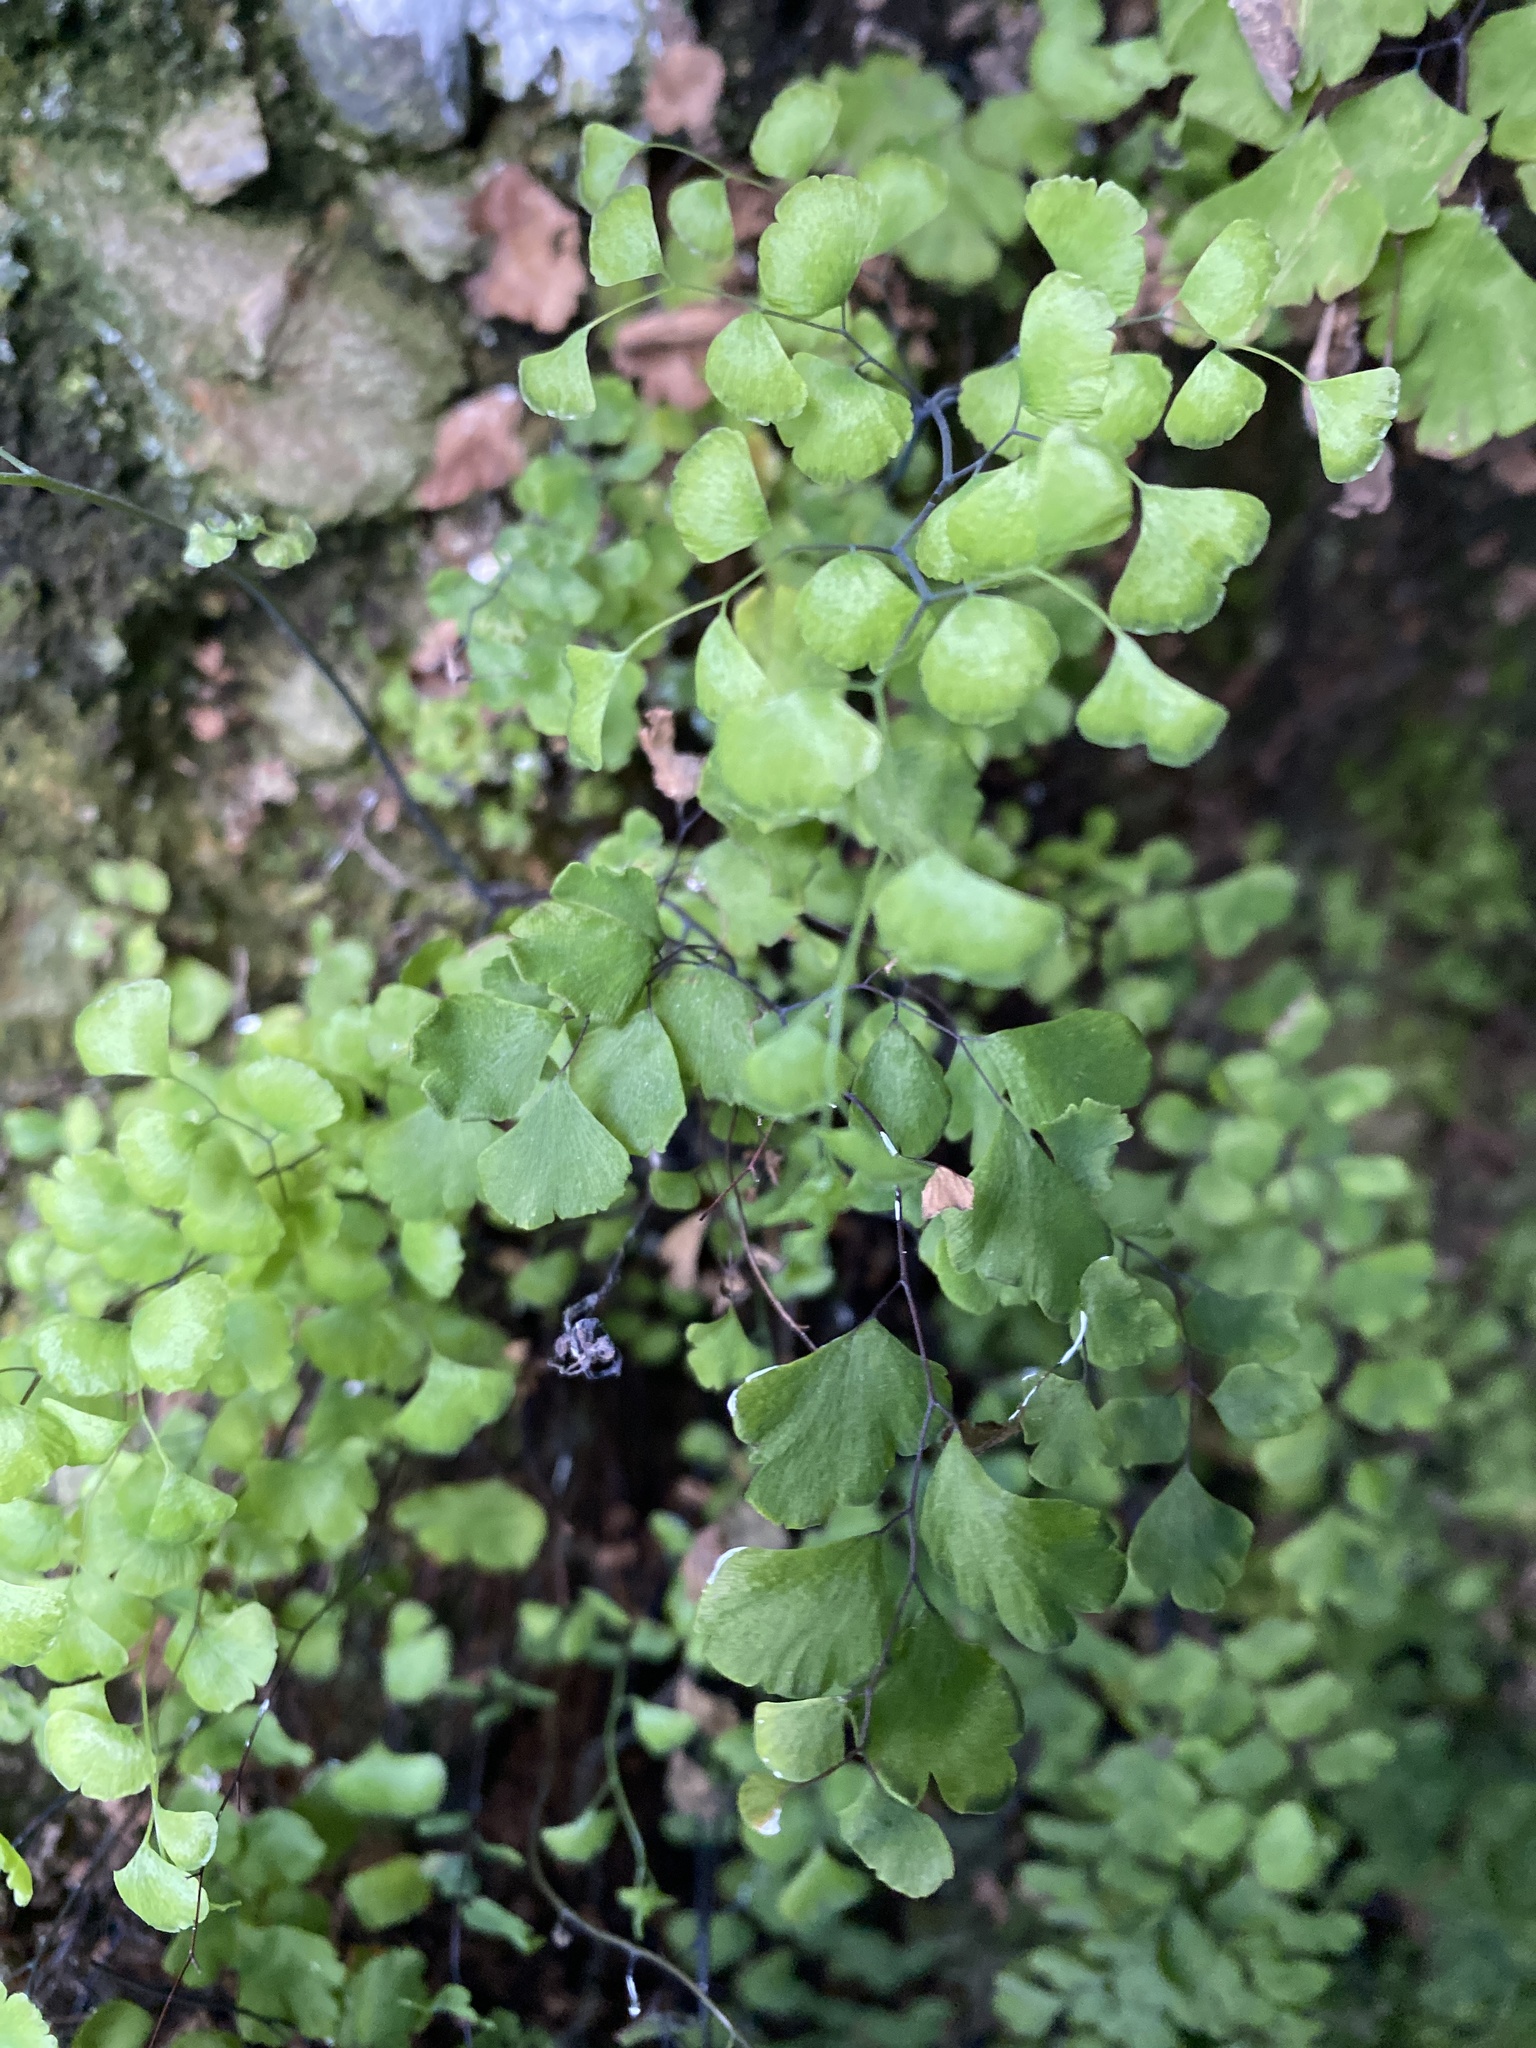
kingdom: Plantae
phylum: Tracheophyta
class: Polypodiopsida
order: Polypodiales
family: Pteridaceae
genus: Adiantum
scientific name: Adiantum capillus-veneris
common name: Maidenhair fern
